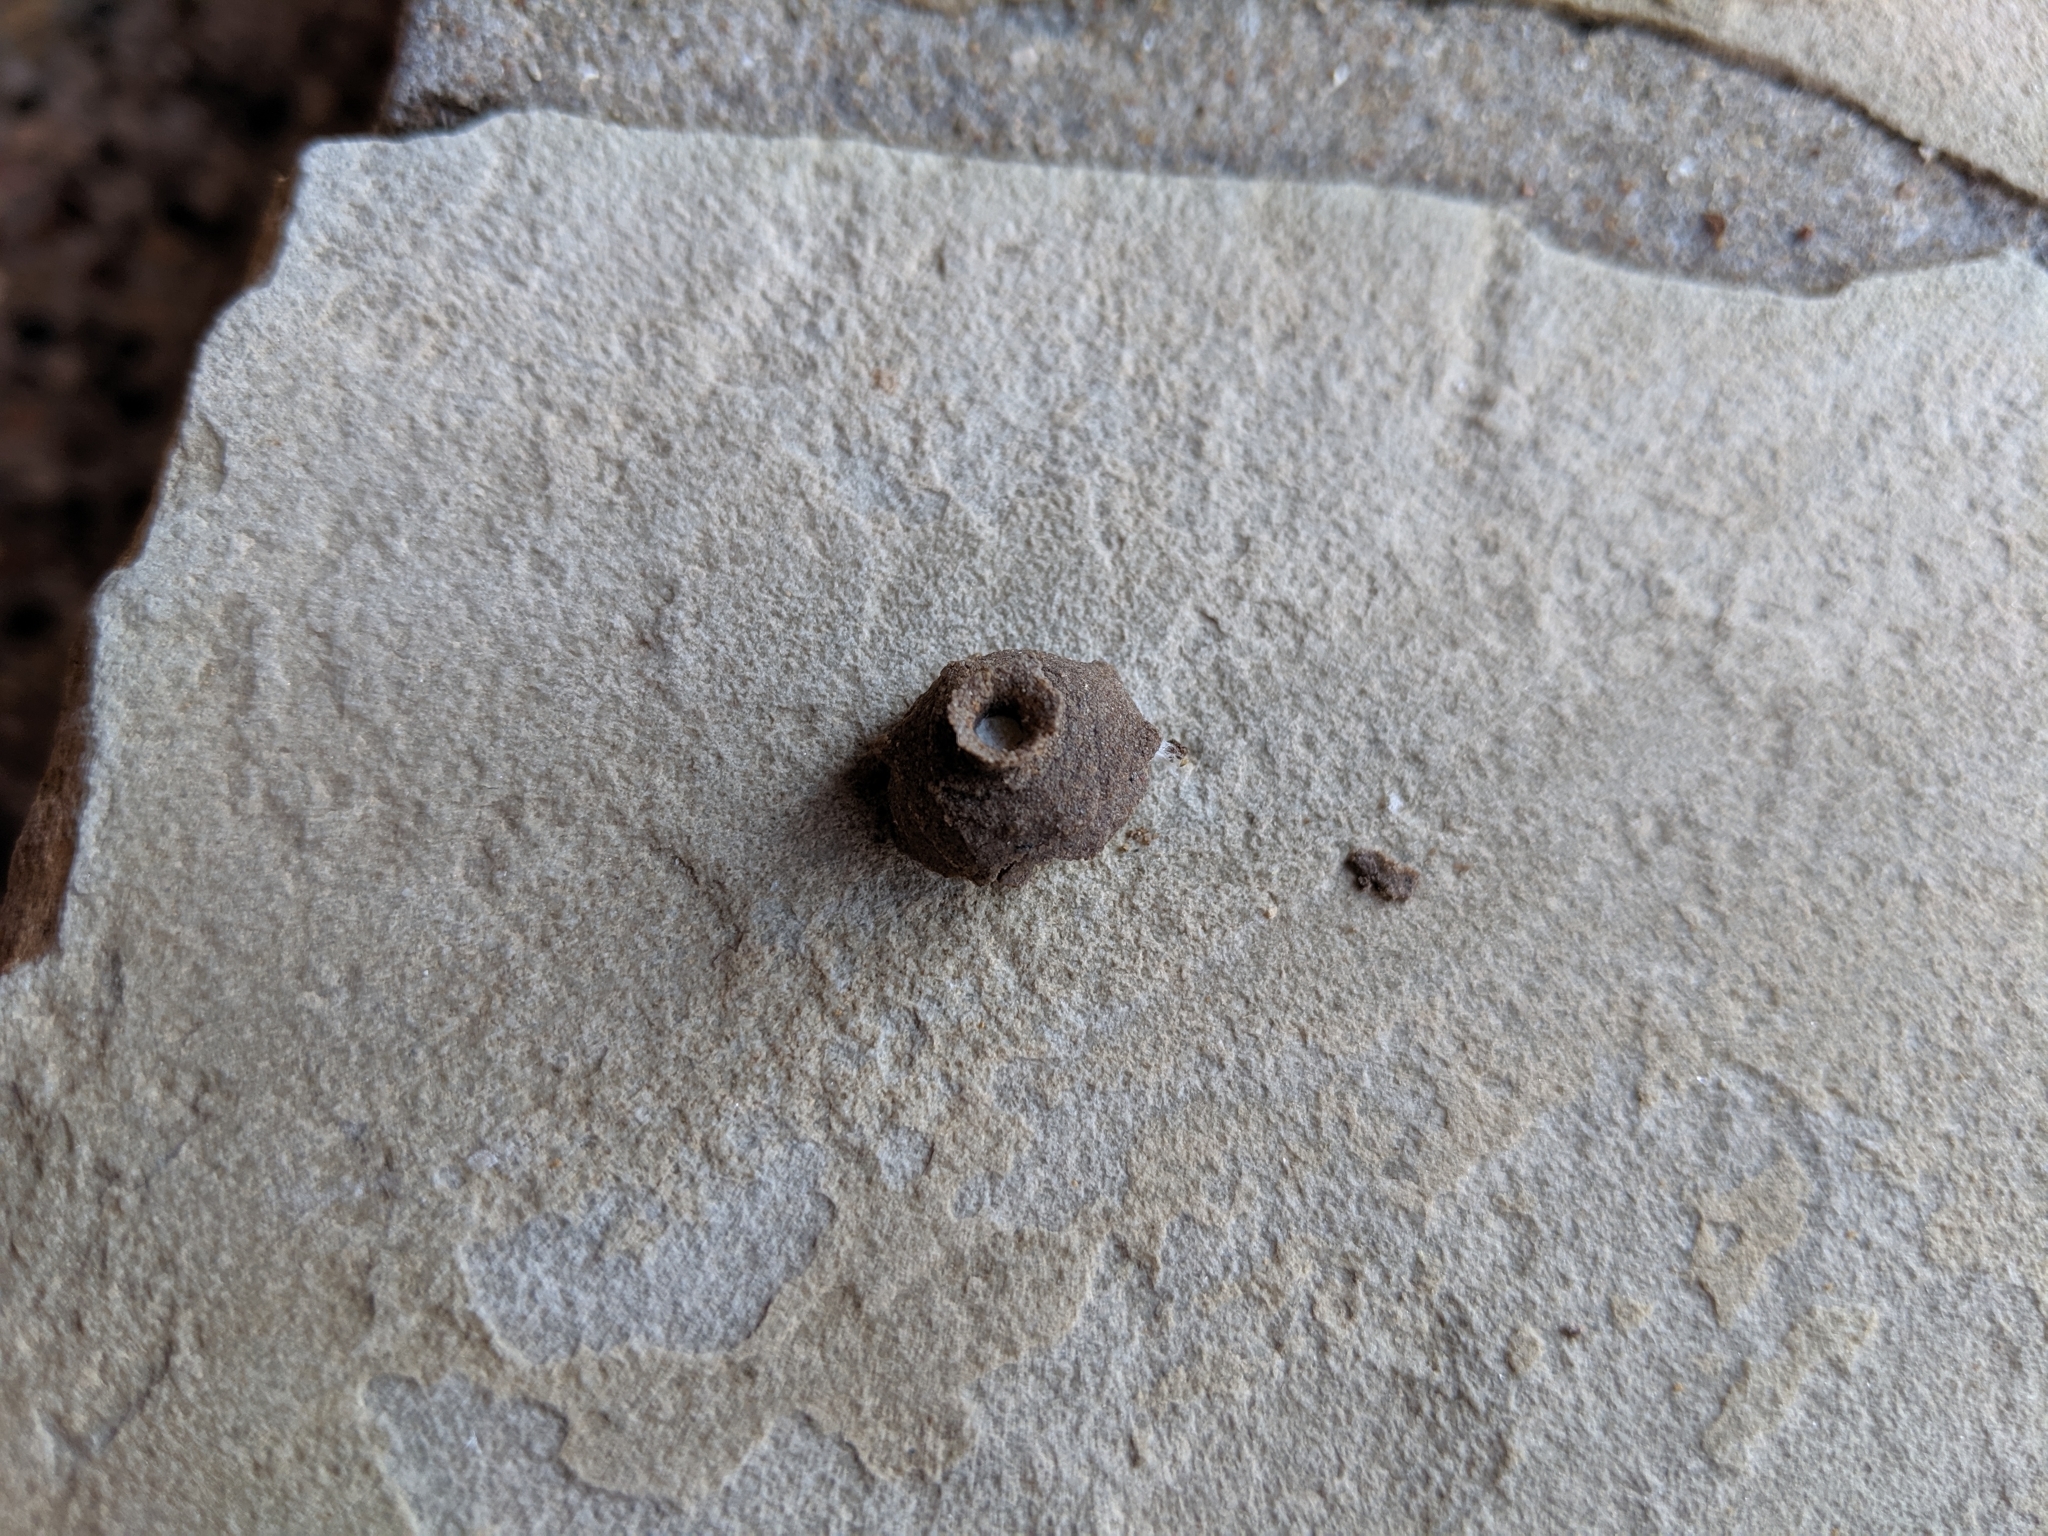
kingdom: Animalia
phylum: Arthropoda
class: Insecta
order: Hymenoptera
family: Vespidae
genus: Eumenes
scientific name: Eumenes
